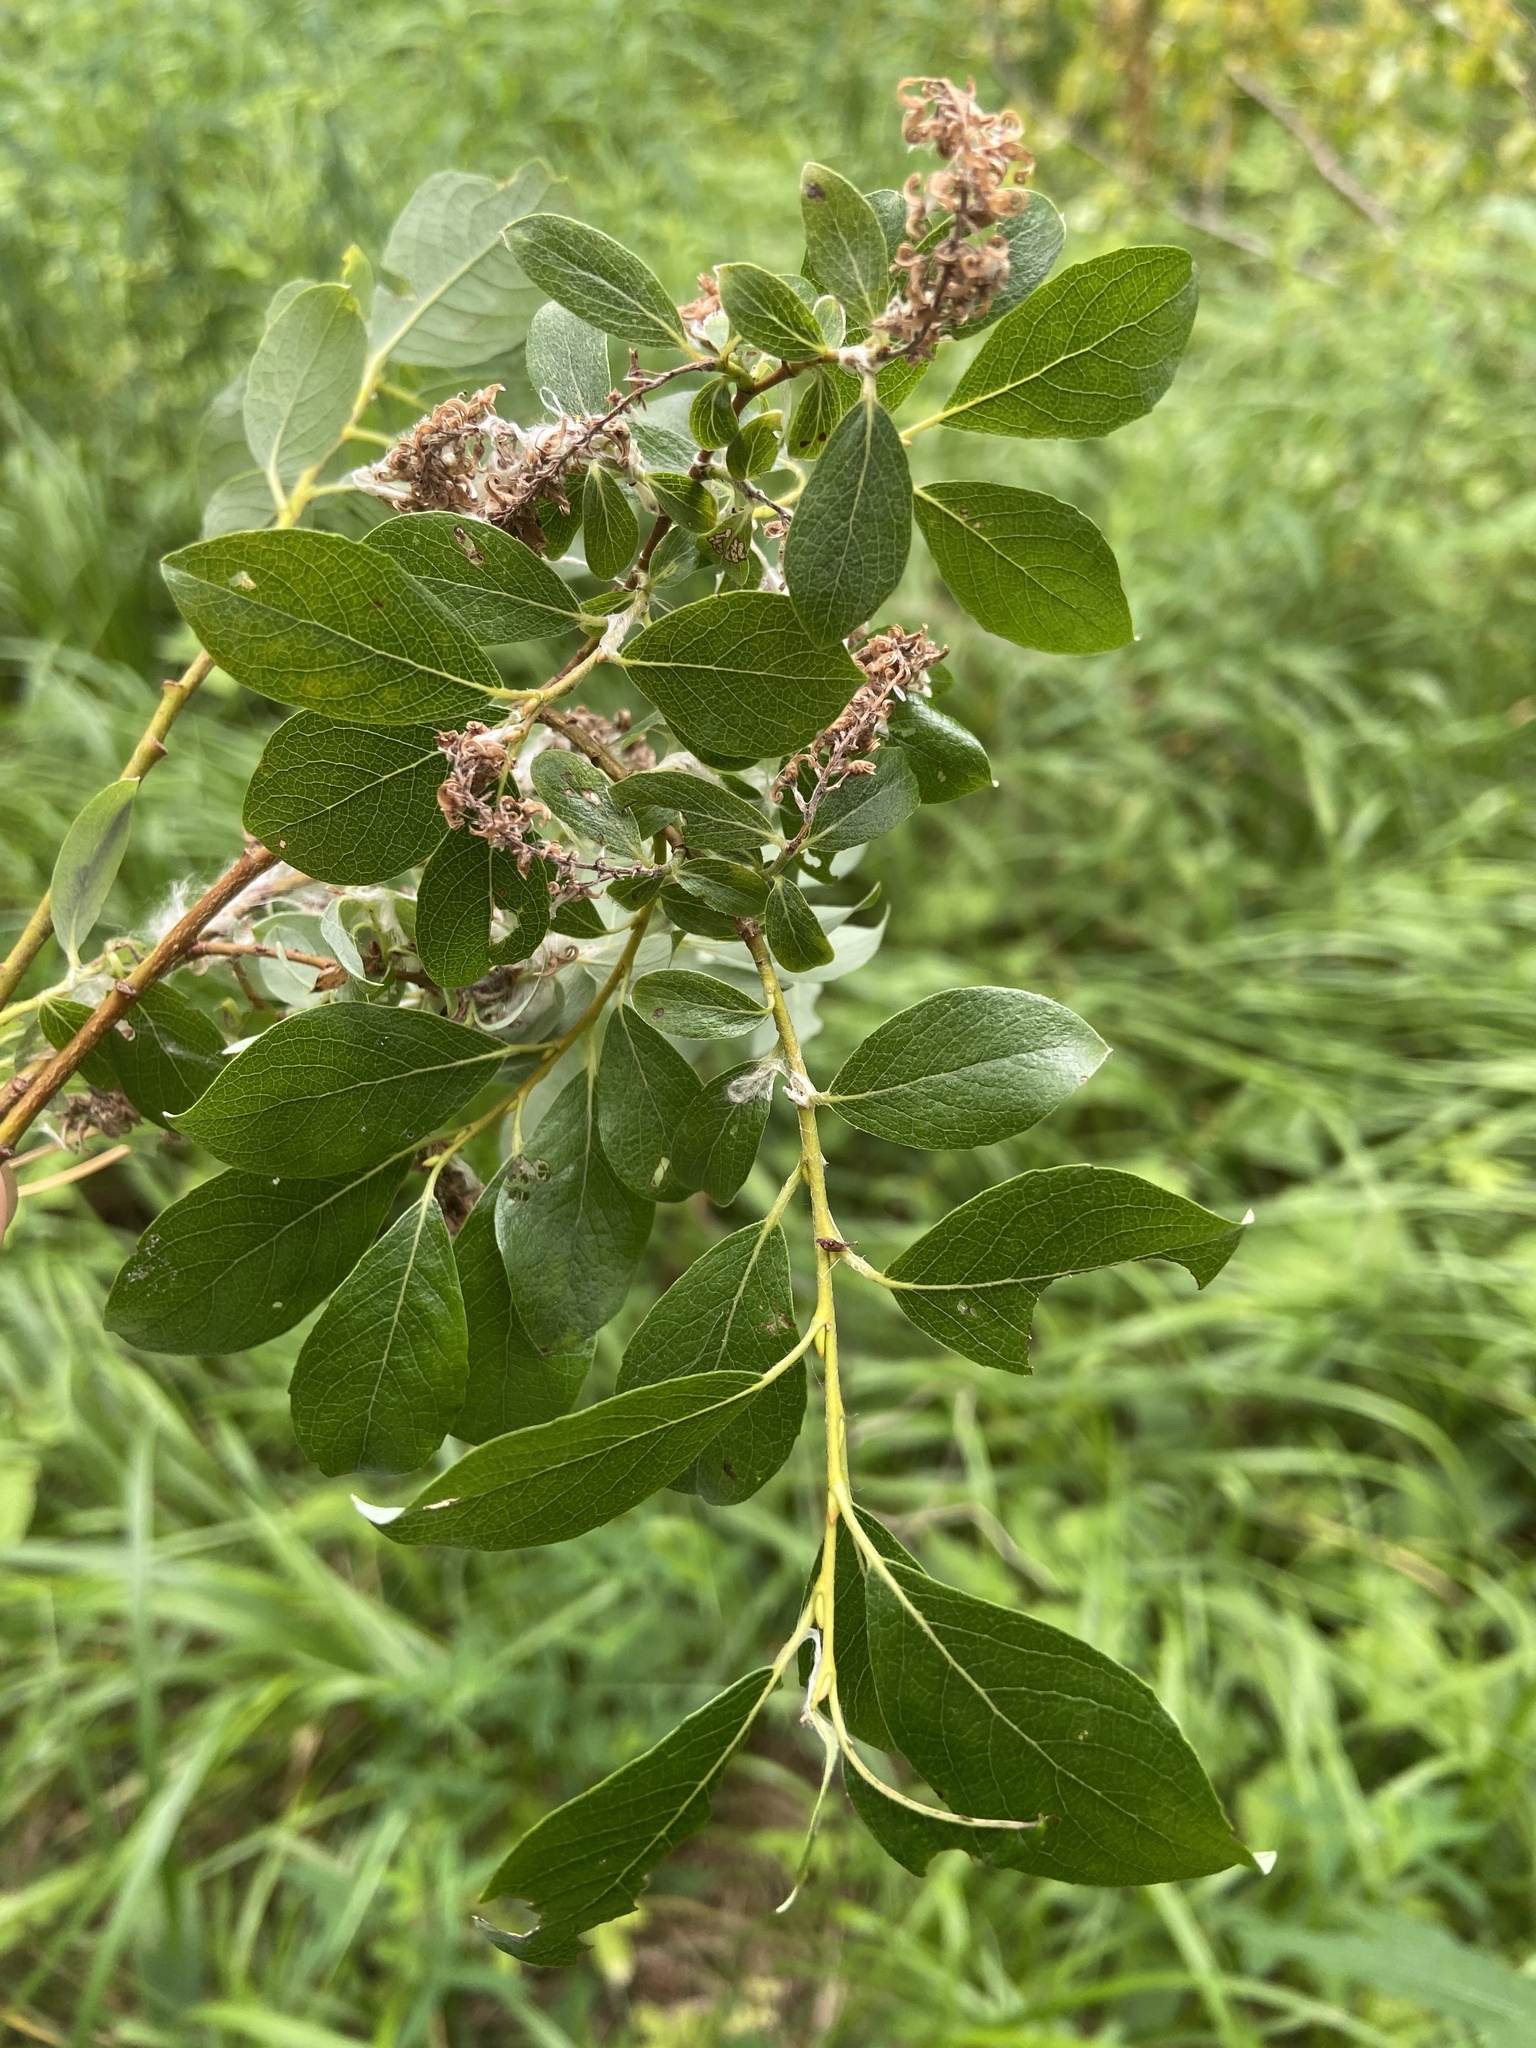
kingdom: Plantae
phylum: Tracheophyta
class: Magnoliopsida
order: Malpighiales
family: Salicaceae
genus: Salix
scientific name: Salix phylicifolia
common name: Tea-leaved willow
